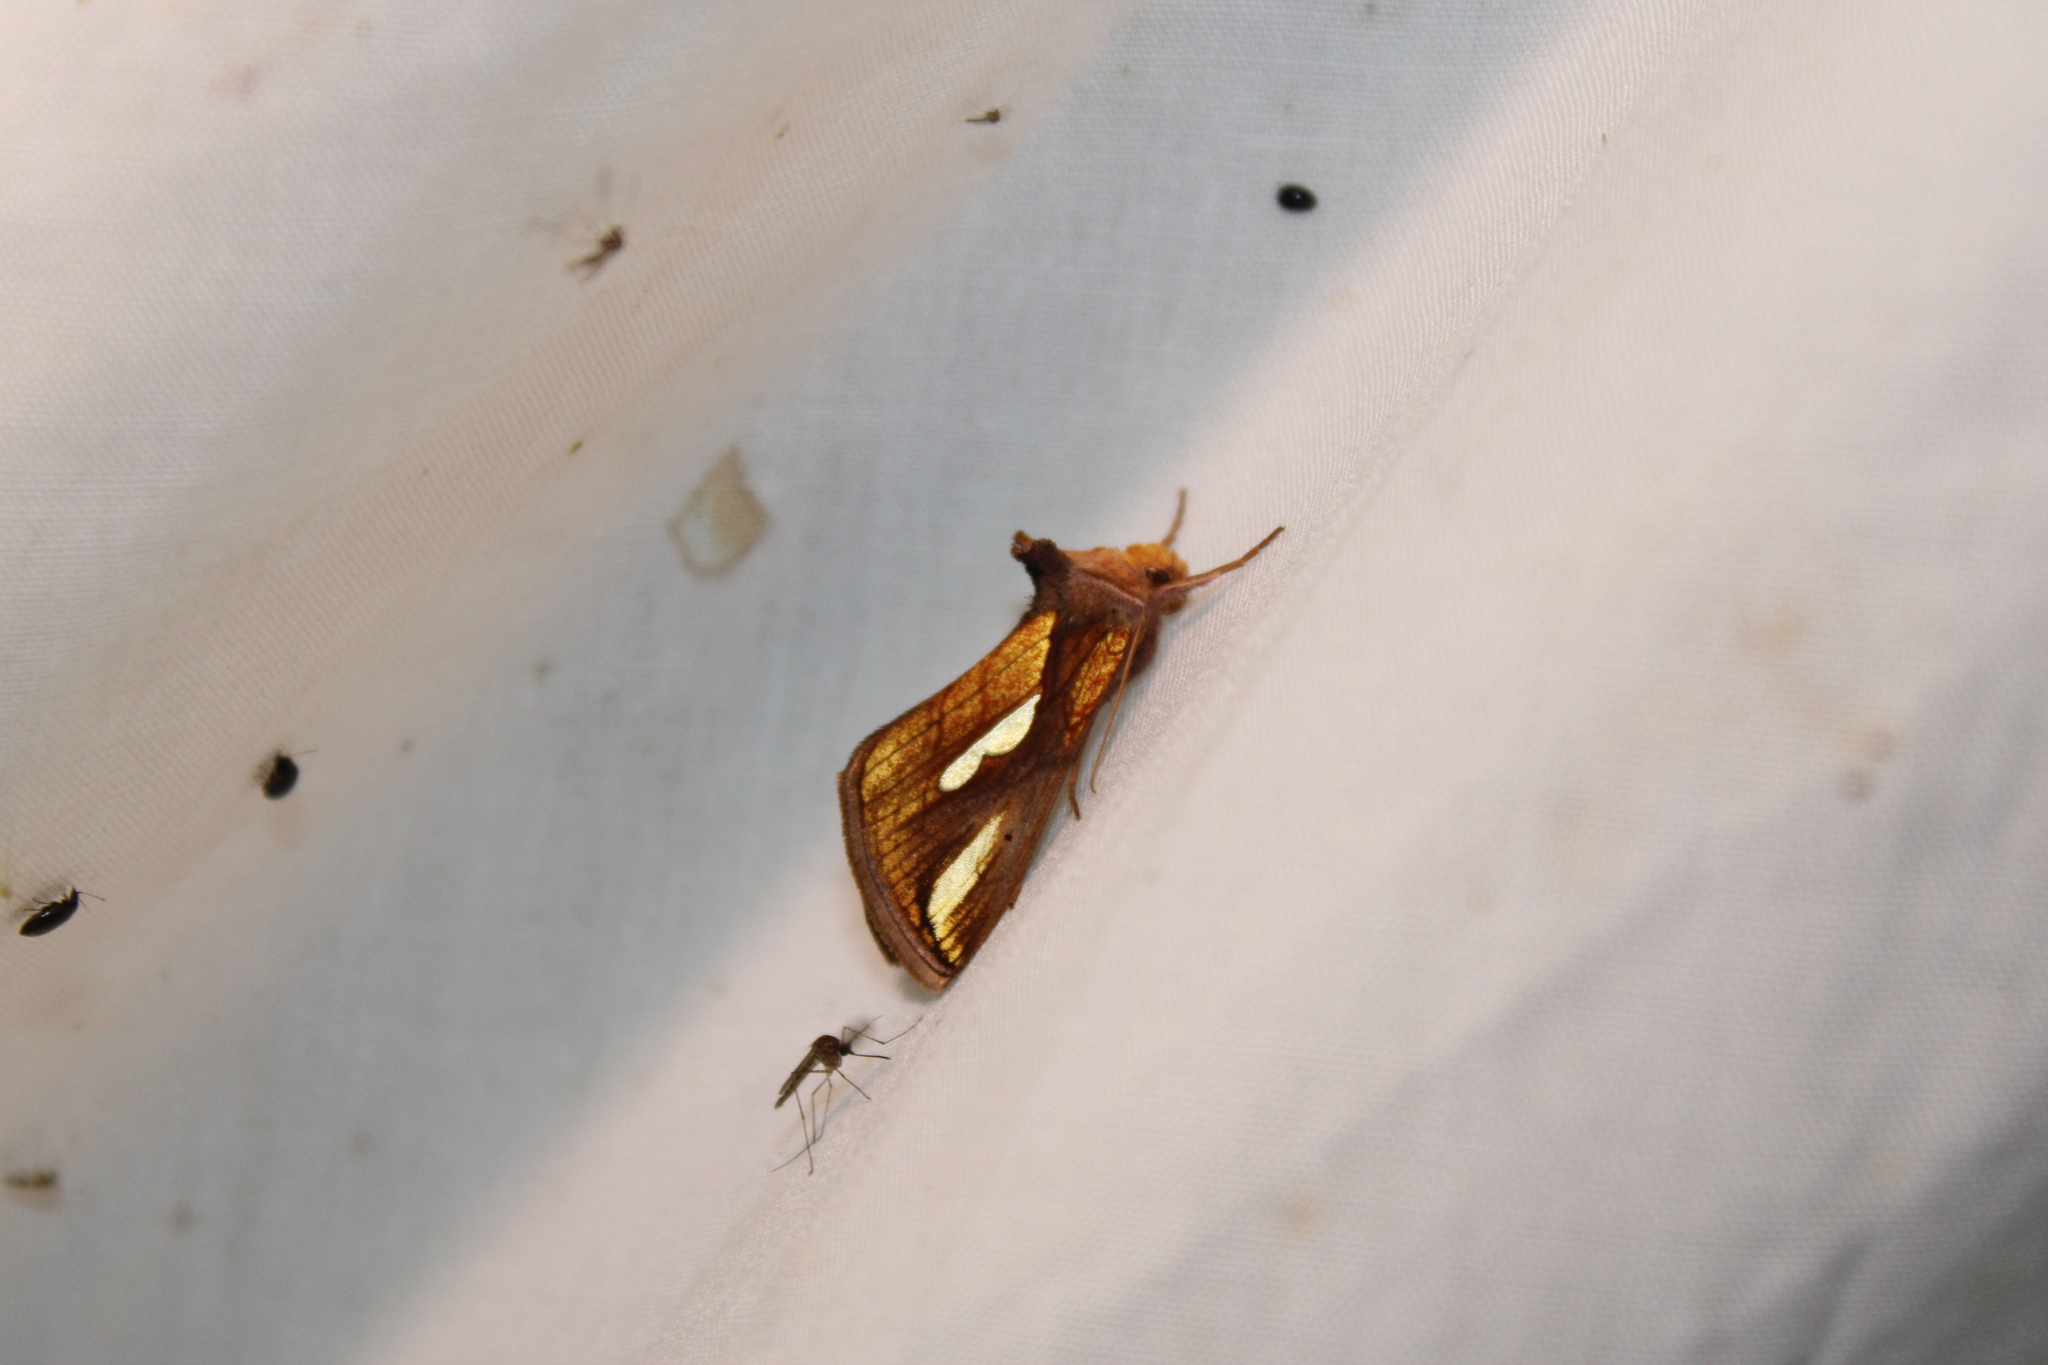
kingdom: Animalia
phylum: Arthropoda
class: Insecta
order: Lepidoptera
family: Noctuidae
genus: Plusia
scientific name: Plusia contexta
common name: Connected looper moth
